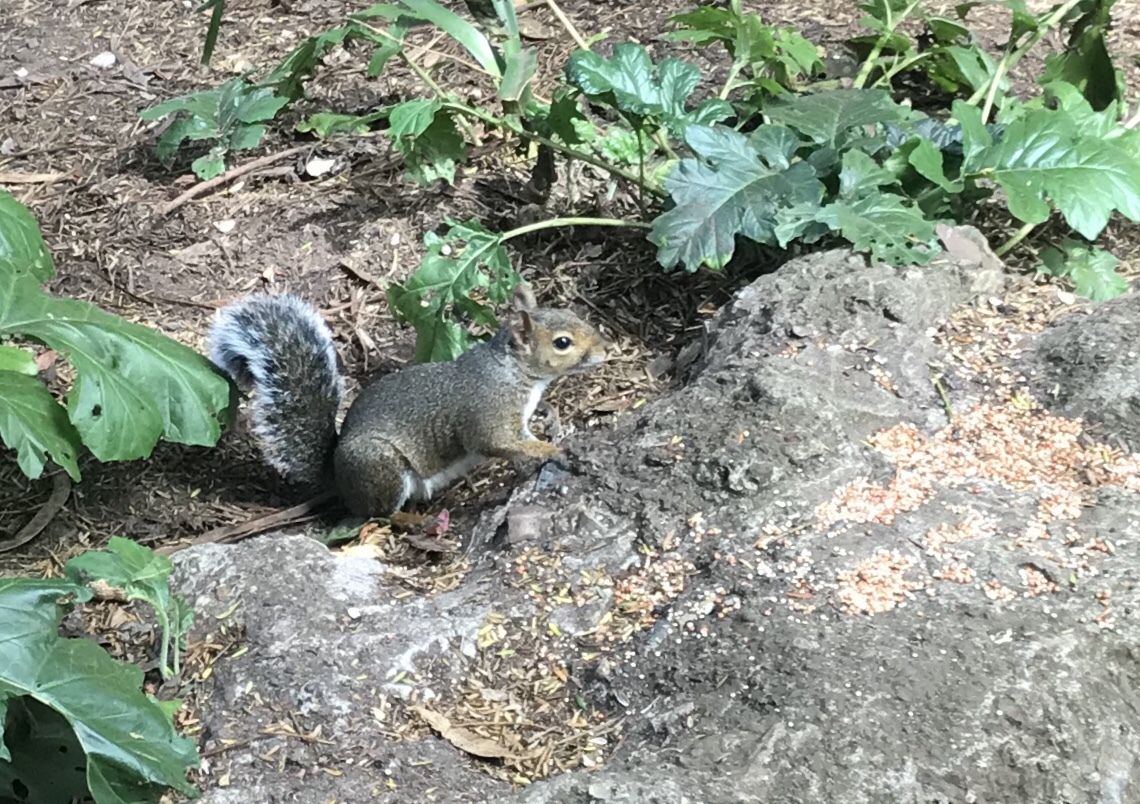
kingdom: Animalia
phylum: Chordata
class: Mammalia
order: Rodentia
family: Sciuridae
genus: Sciurus
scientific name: Sciurus carolinensis
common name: Eastern gray squirrel
